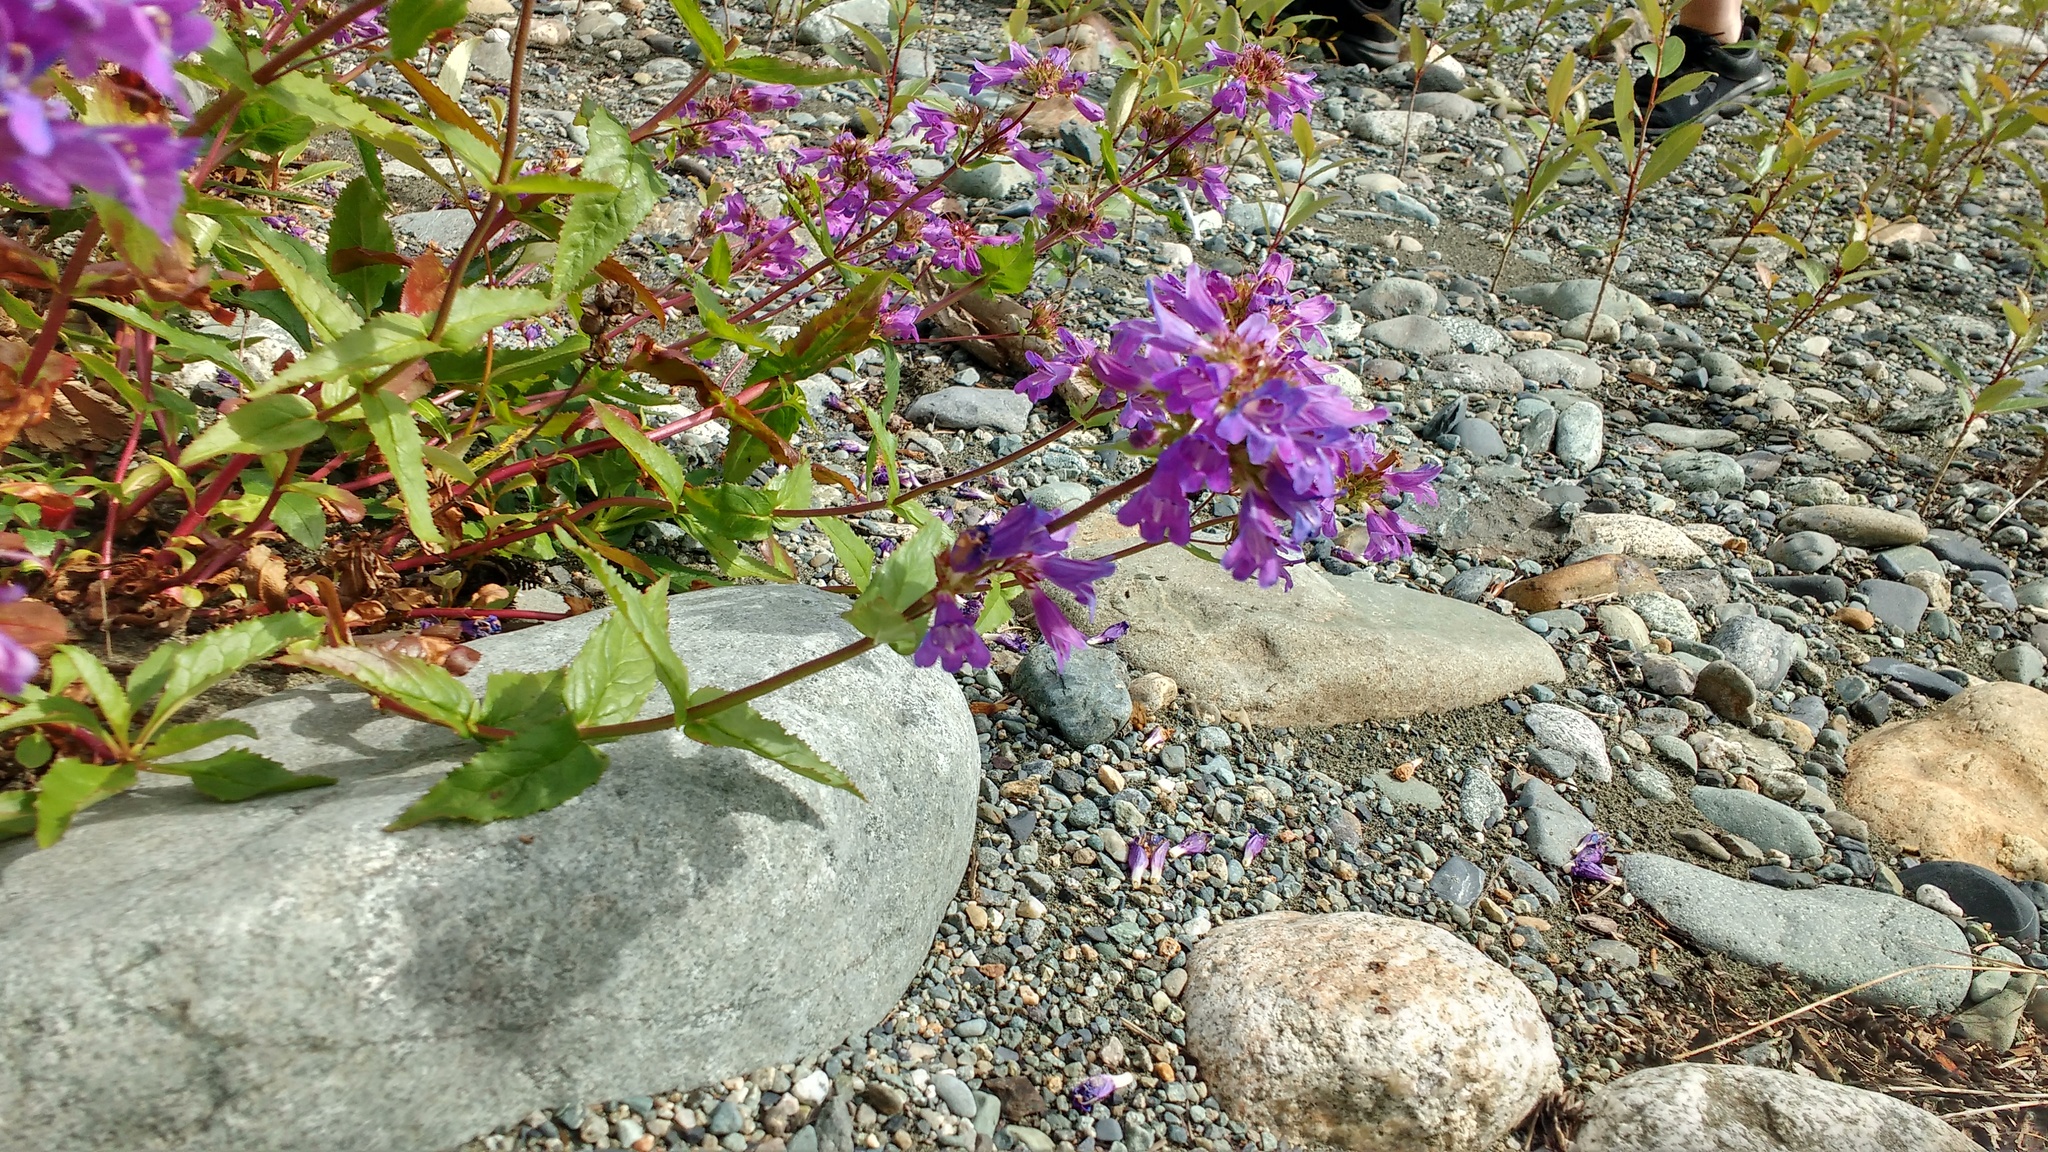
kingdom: Plantae
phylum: Tracheophyta
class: Magnoliopsida
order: Lamiales
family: Plantaginaceae
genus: Penstemon
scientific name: Penstemon serrulatus
